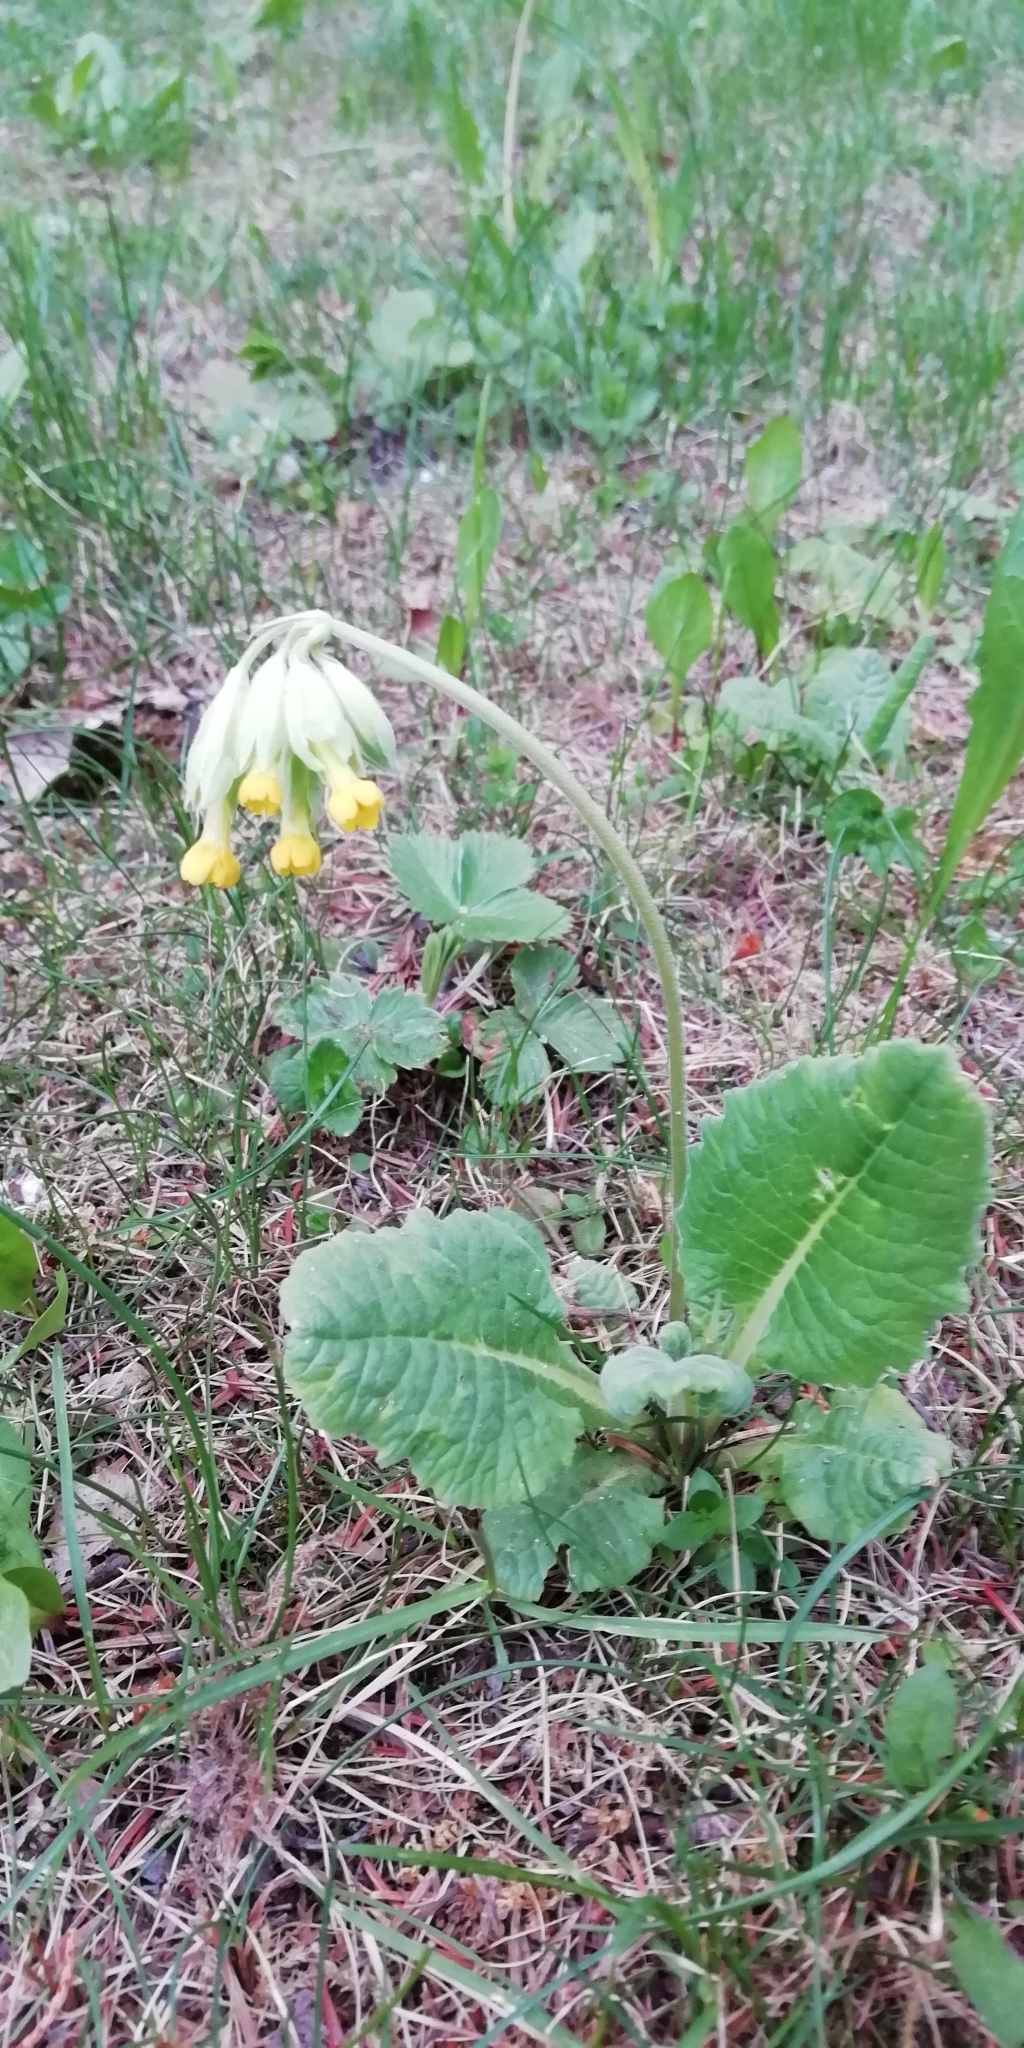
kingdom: Plantae
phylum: Tracheophyta
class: Magnoliopsida
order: Ericales
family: Primulaceae
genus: Primula
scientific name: Primula veris
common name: Cowslip
